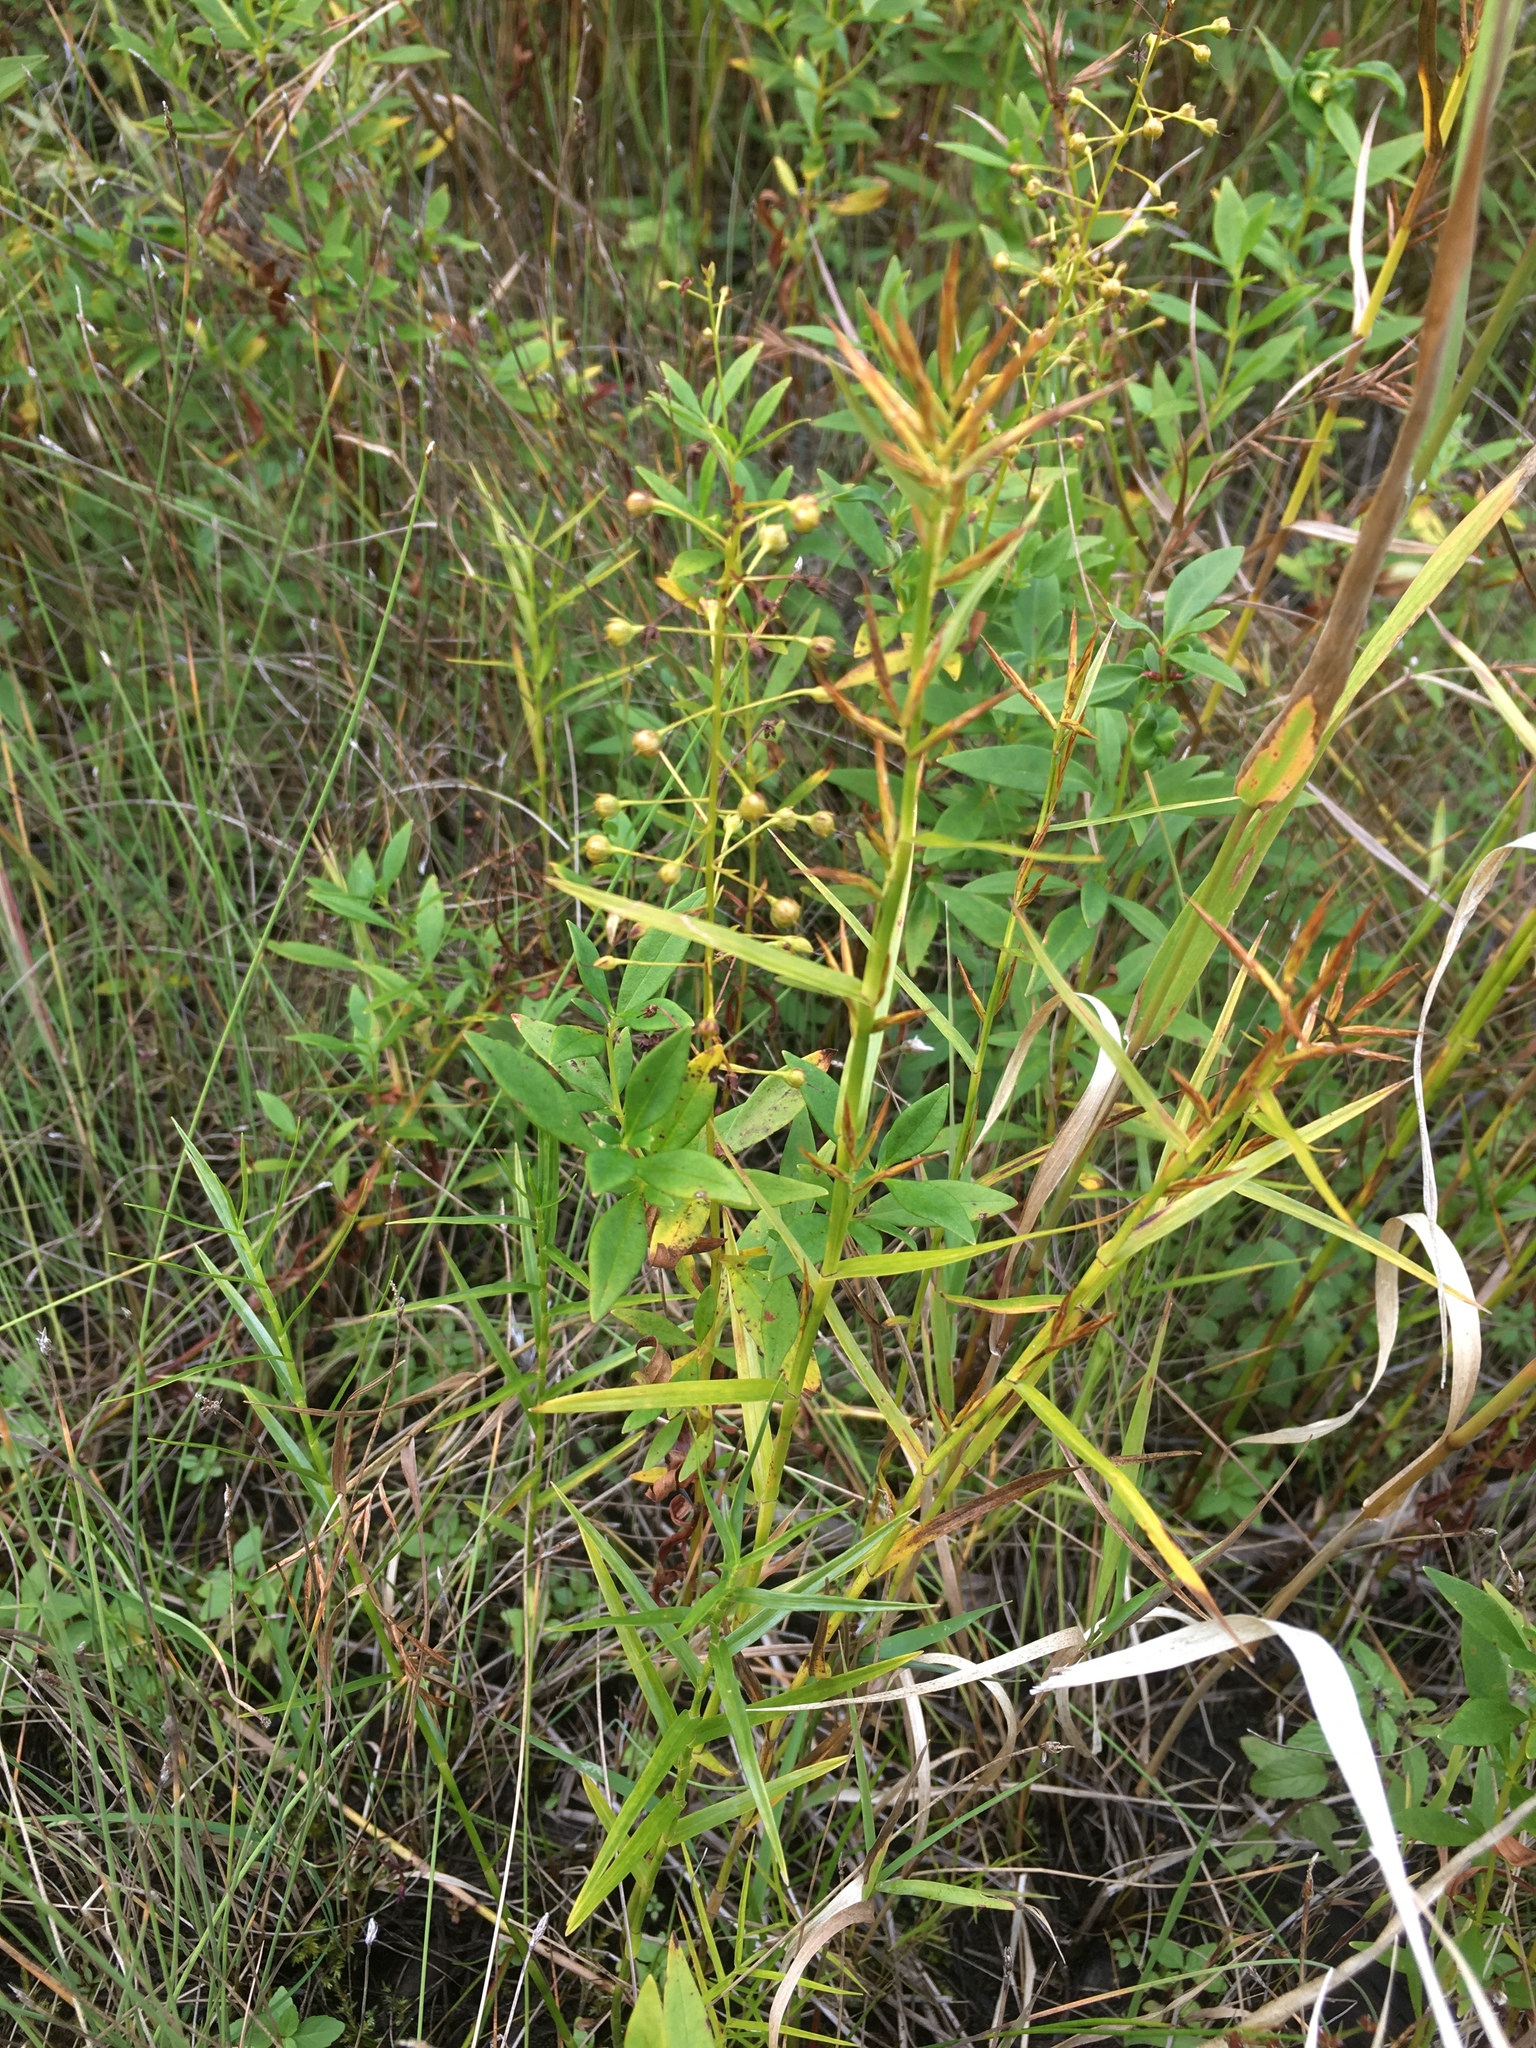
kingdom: Plantae
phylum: Tracheophyta
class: Magnoliopsida
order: Ericales
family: Primulaceae
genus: Lysimachia
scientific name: Lysimachia terrestris
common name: Lake loosestrife
